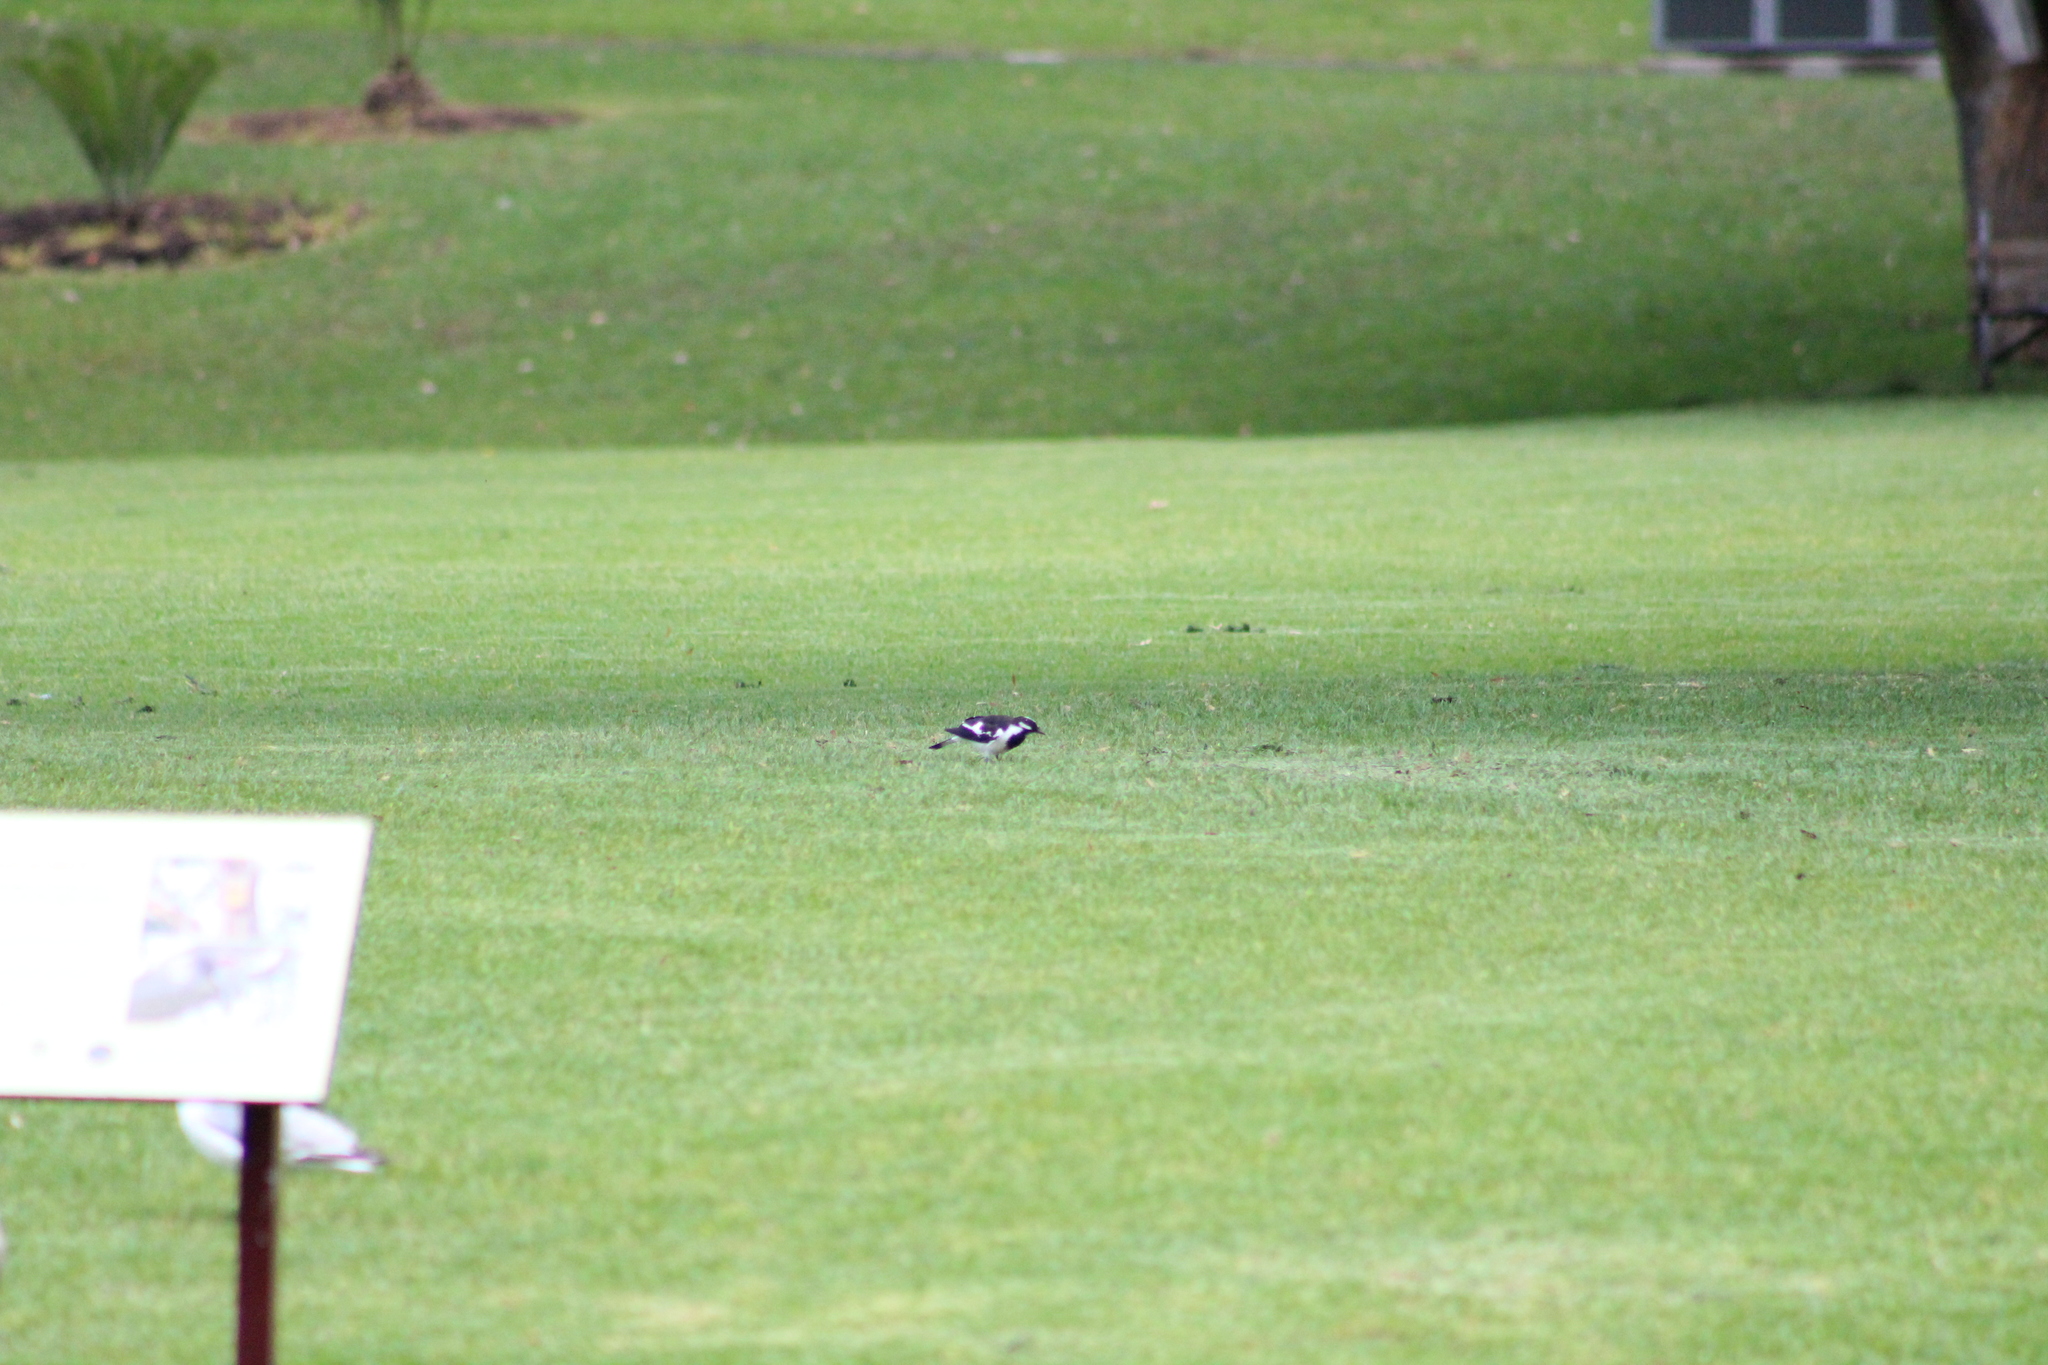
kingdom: Animalia
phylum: Chordata
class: Aves
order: Passeriformes
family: Monarchidae
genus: Grallina
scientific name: Grallina cyanoleuca
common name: Magpie-lark
